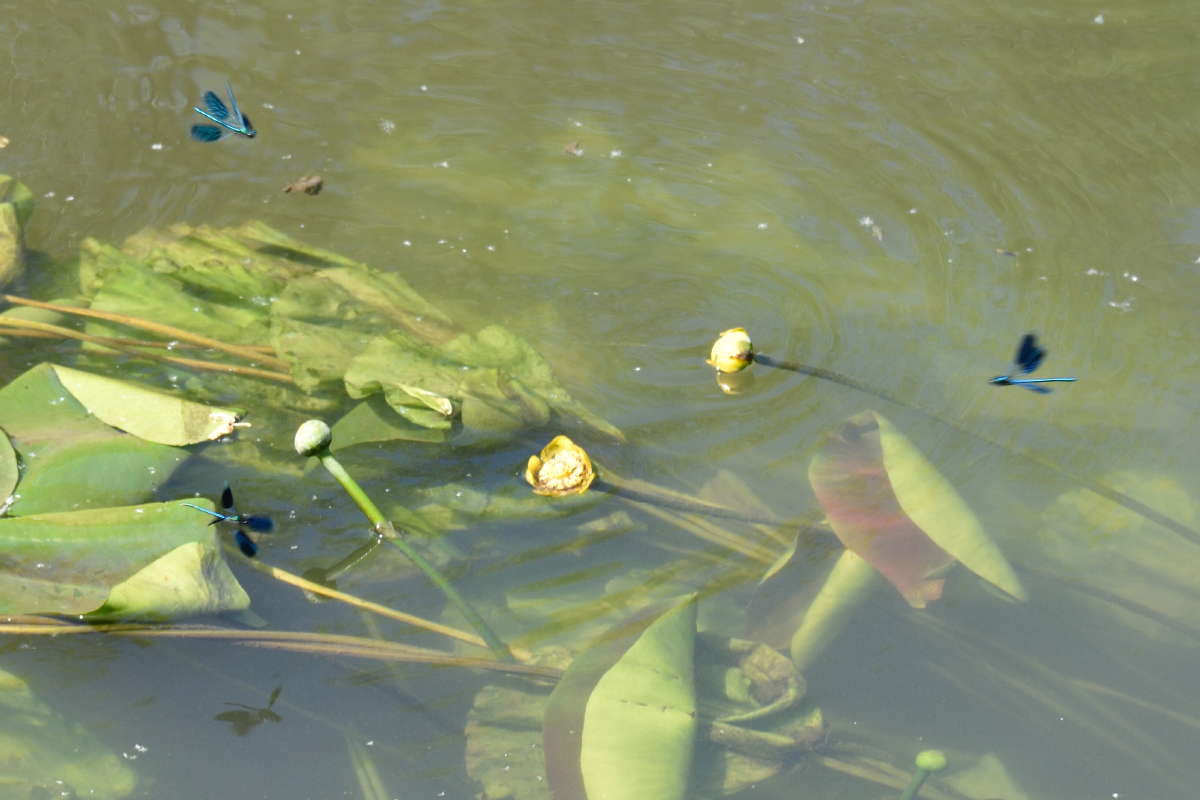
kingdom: Animalia
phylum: Arthropoda
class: Insecta
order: Odonata
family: Calopterygidae
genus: Calopteryx
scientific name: Calopteryx splendens
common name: Banded demoiselle
